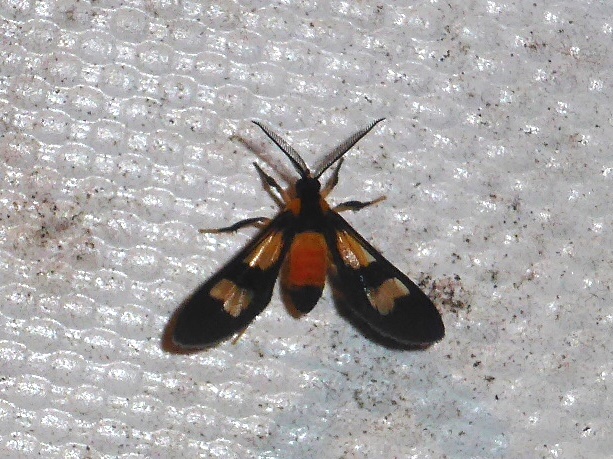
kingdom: Animalia
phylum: Arthropoda
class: Insecta
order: Lepidoptera
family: Erebidae
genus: Leucotmemis
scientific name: Leucotmemis hemileuca
